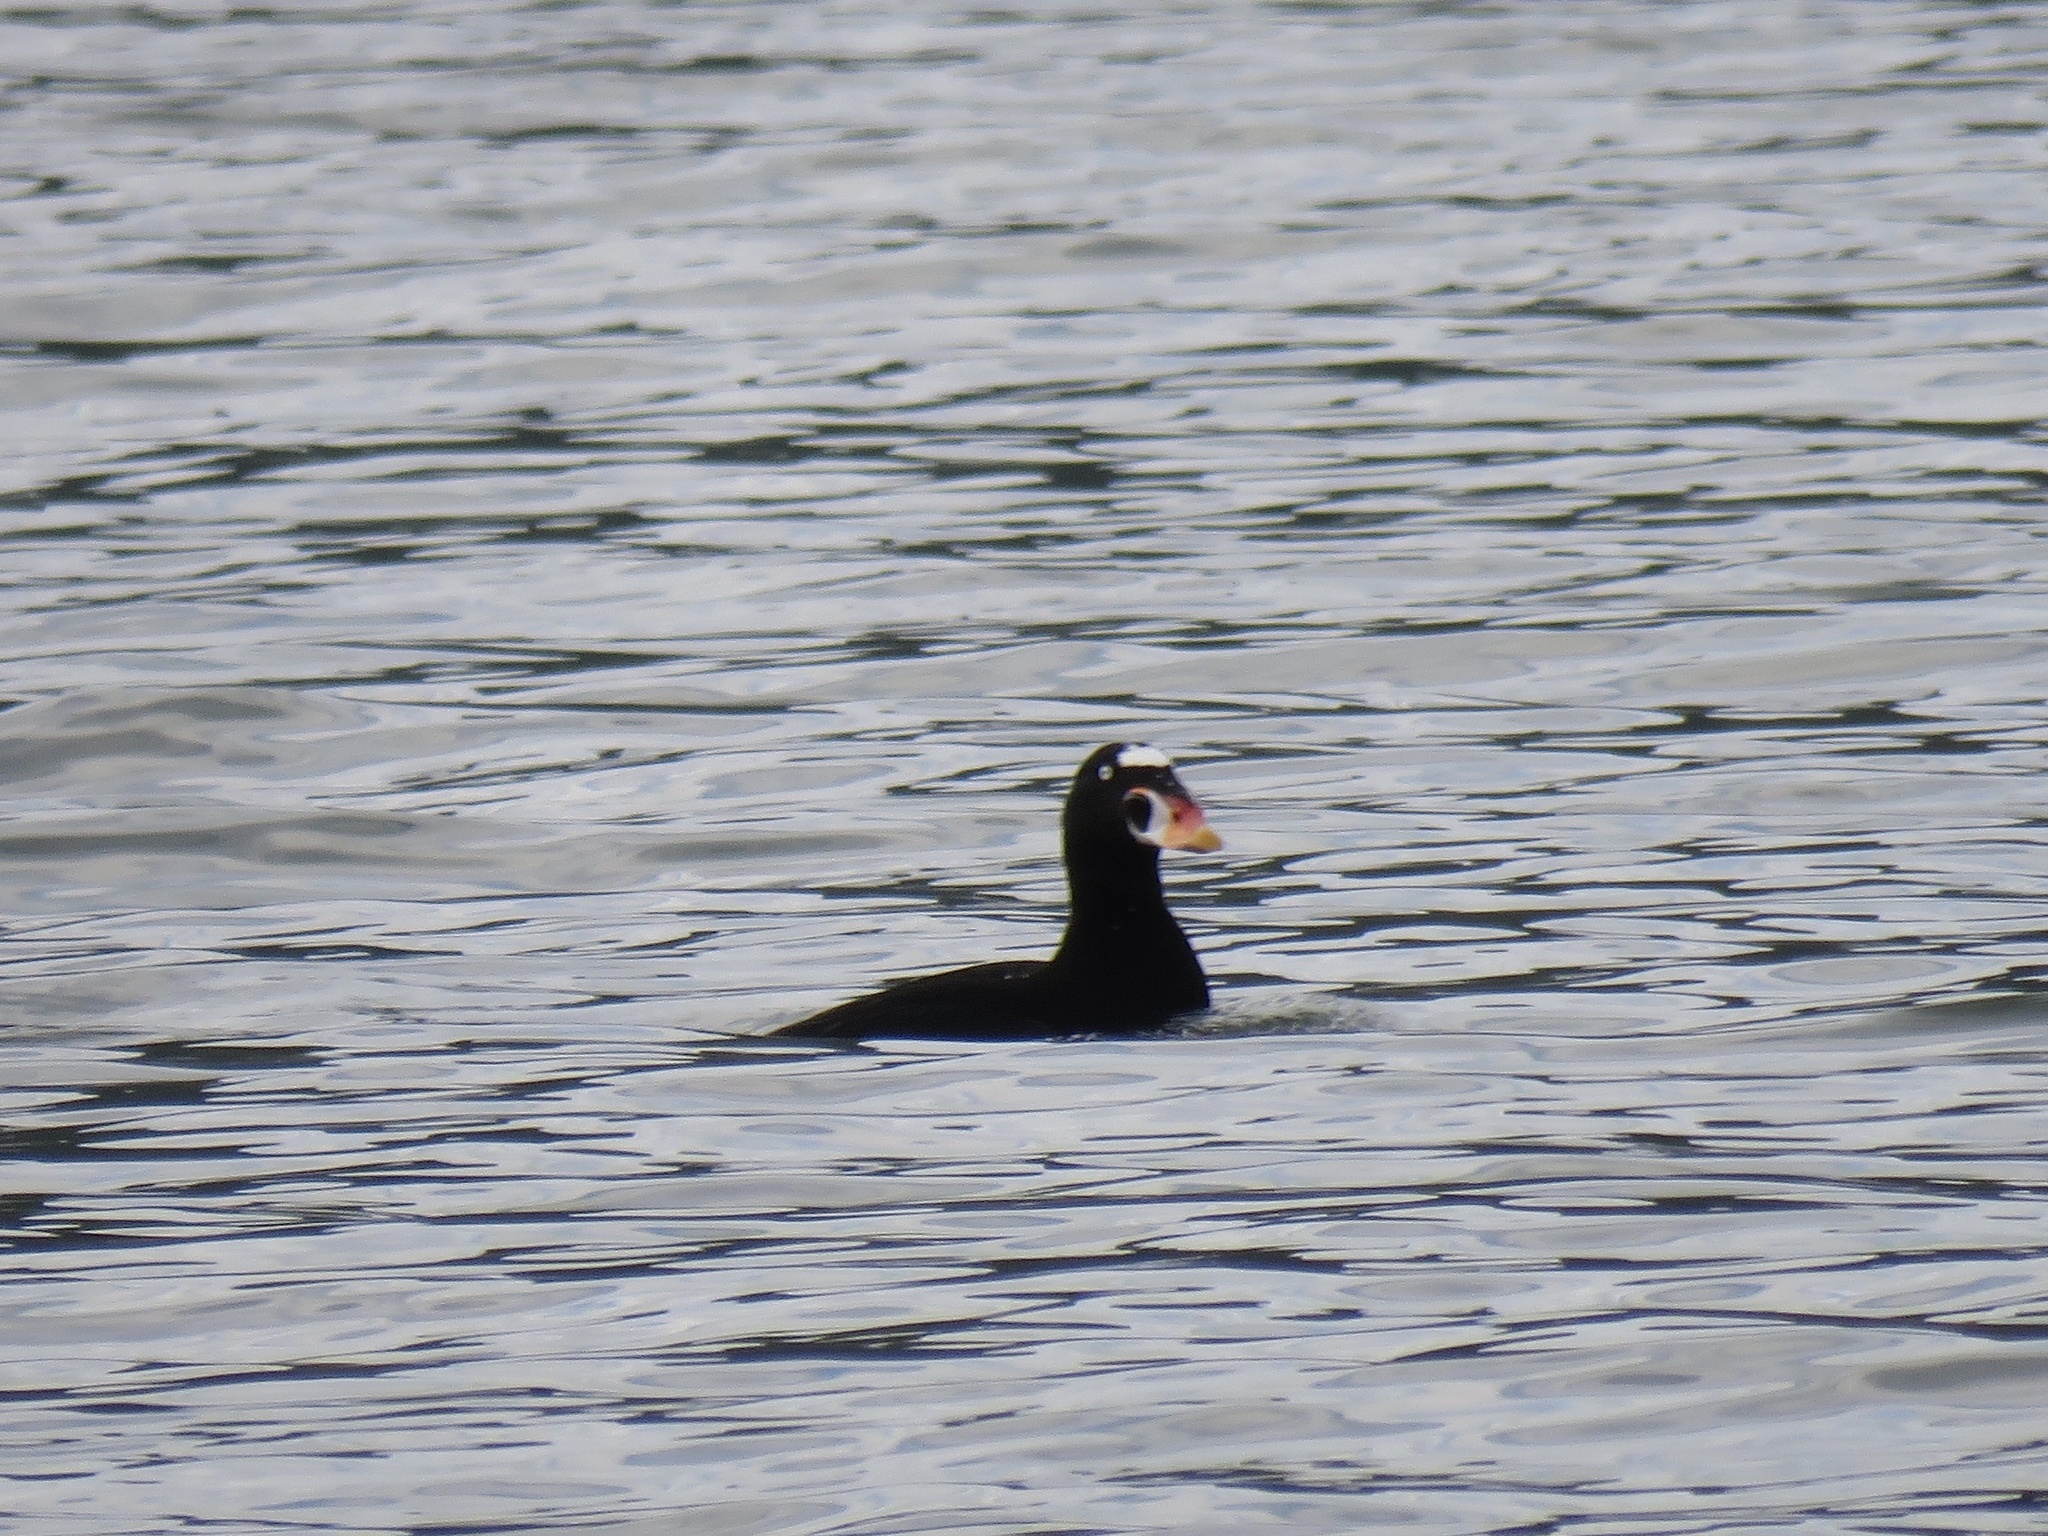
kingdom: Animalia
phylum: Chordata
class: Aves
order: Anseriformes
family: Anatidae
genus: Melanitta
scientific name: Melanitta perspicillata
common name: Surf scoter
